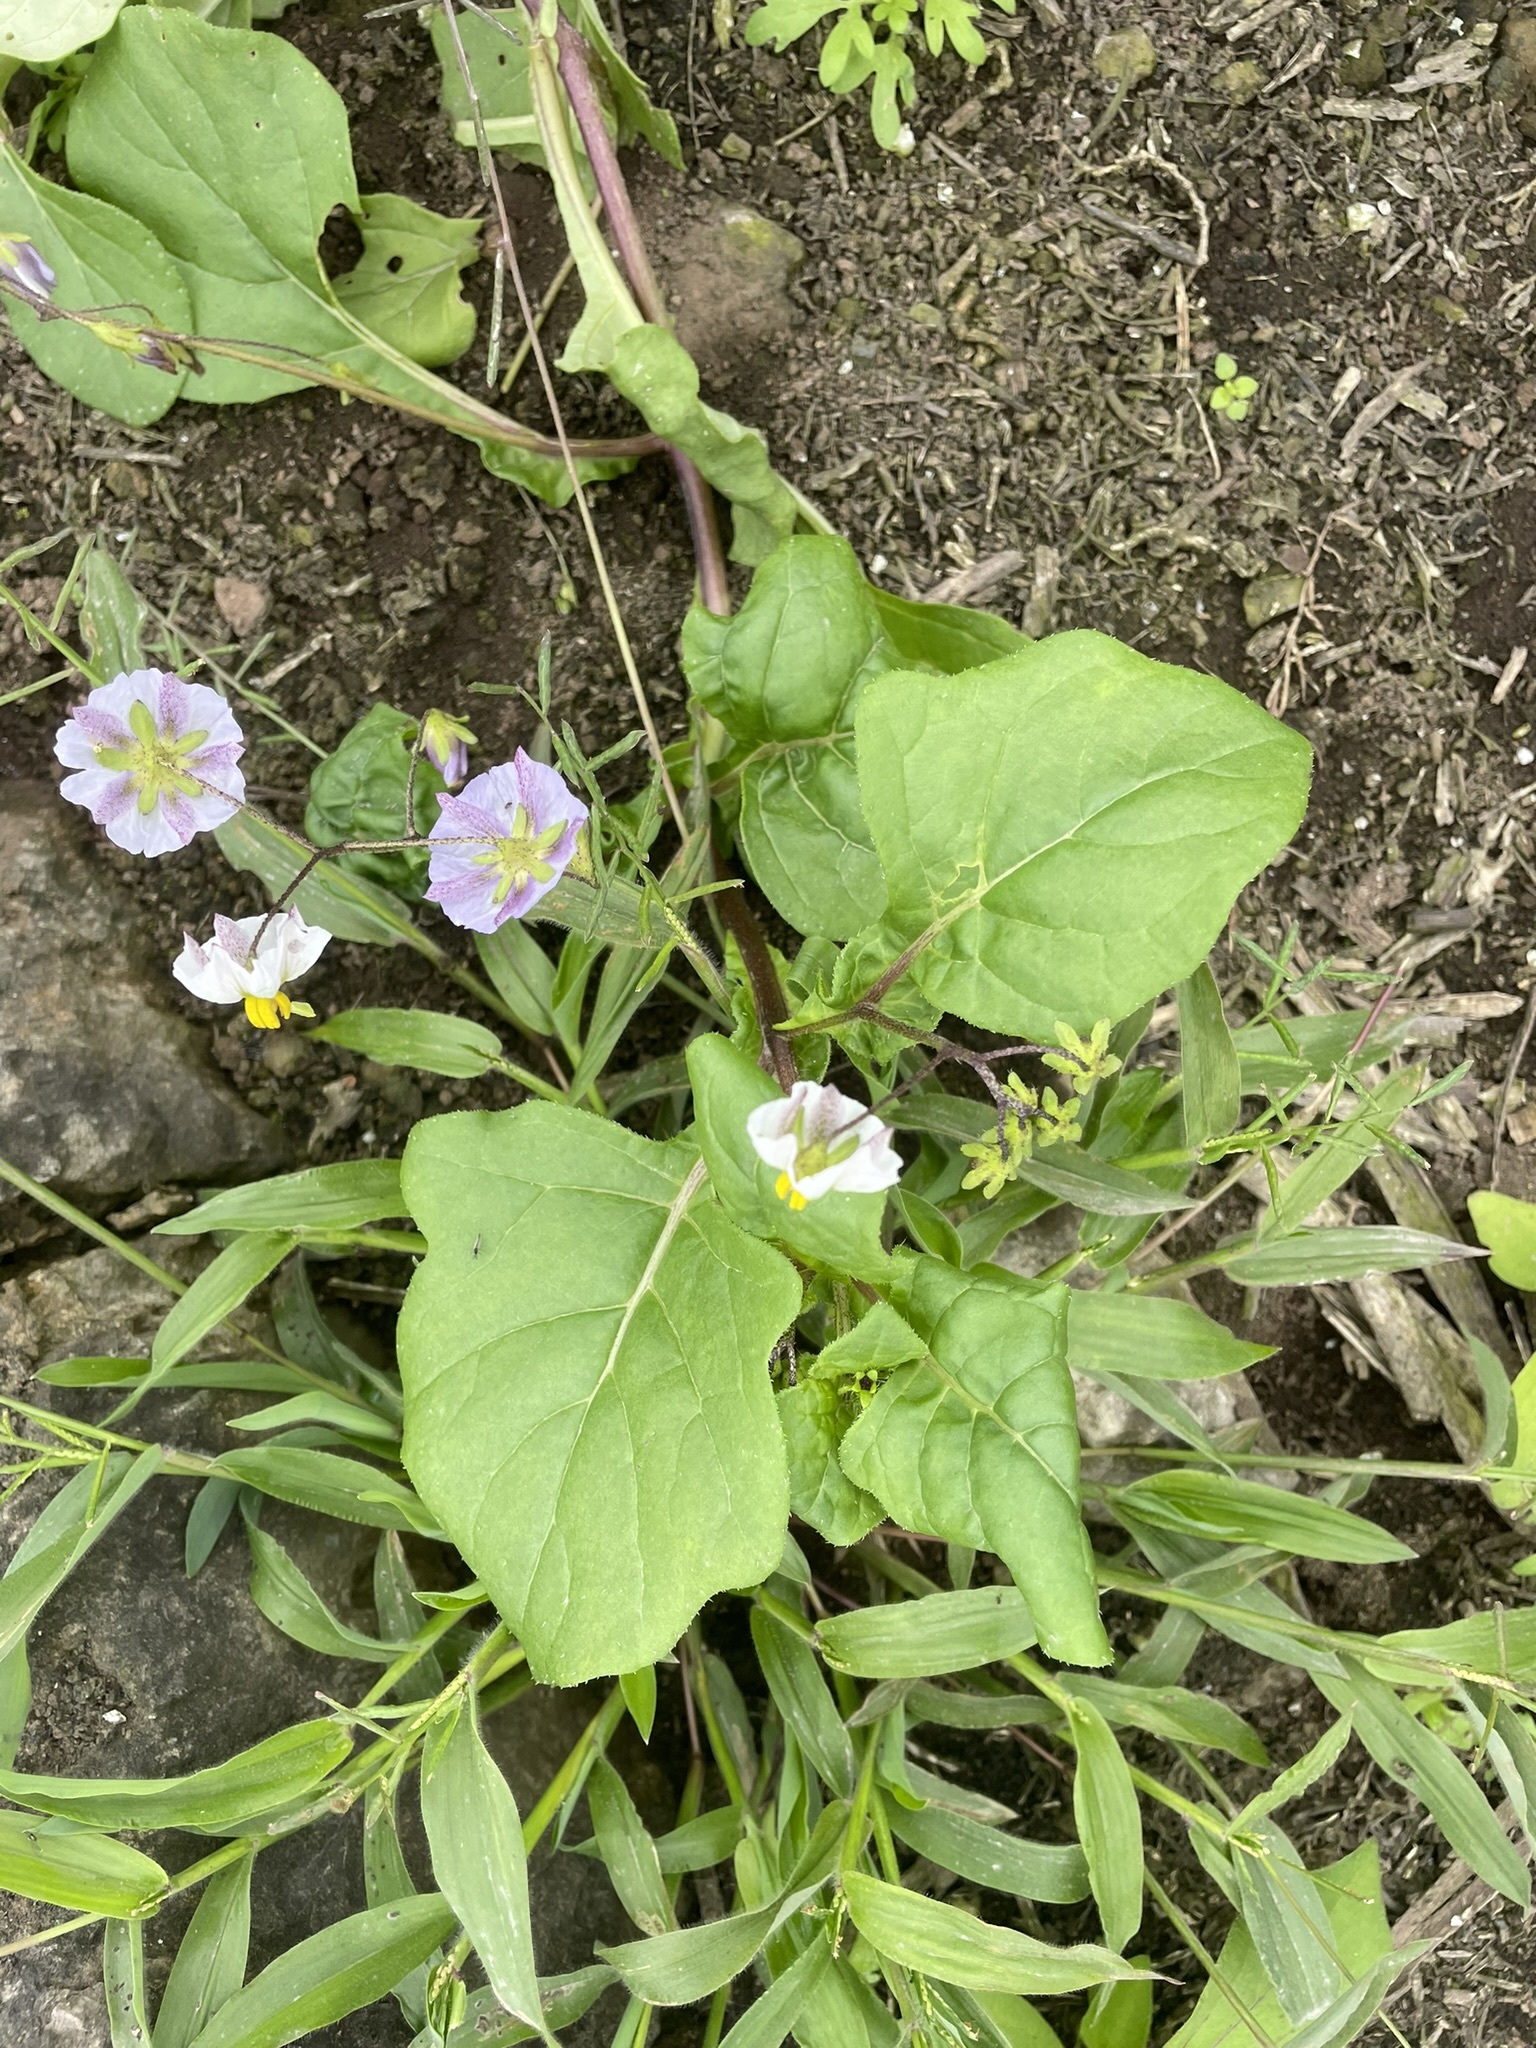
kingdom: Plantae
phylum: Tracheophyta
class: Magnoliopsida
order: Solanales
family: Solanaceae
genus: Solanum
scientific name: Solanum montanum
